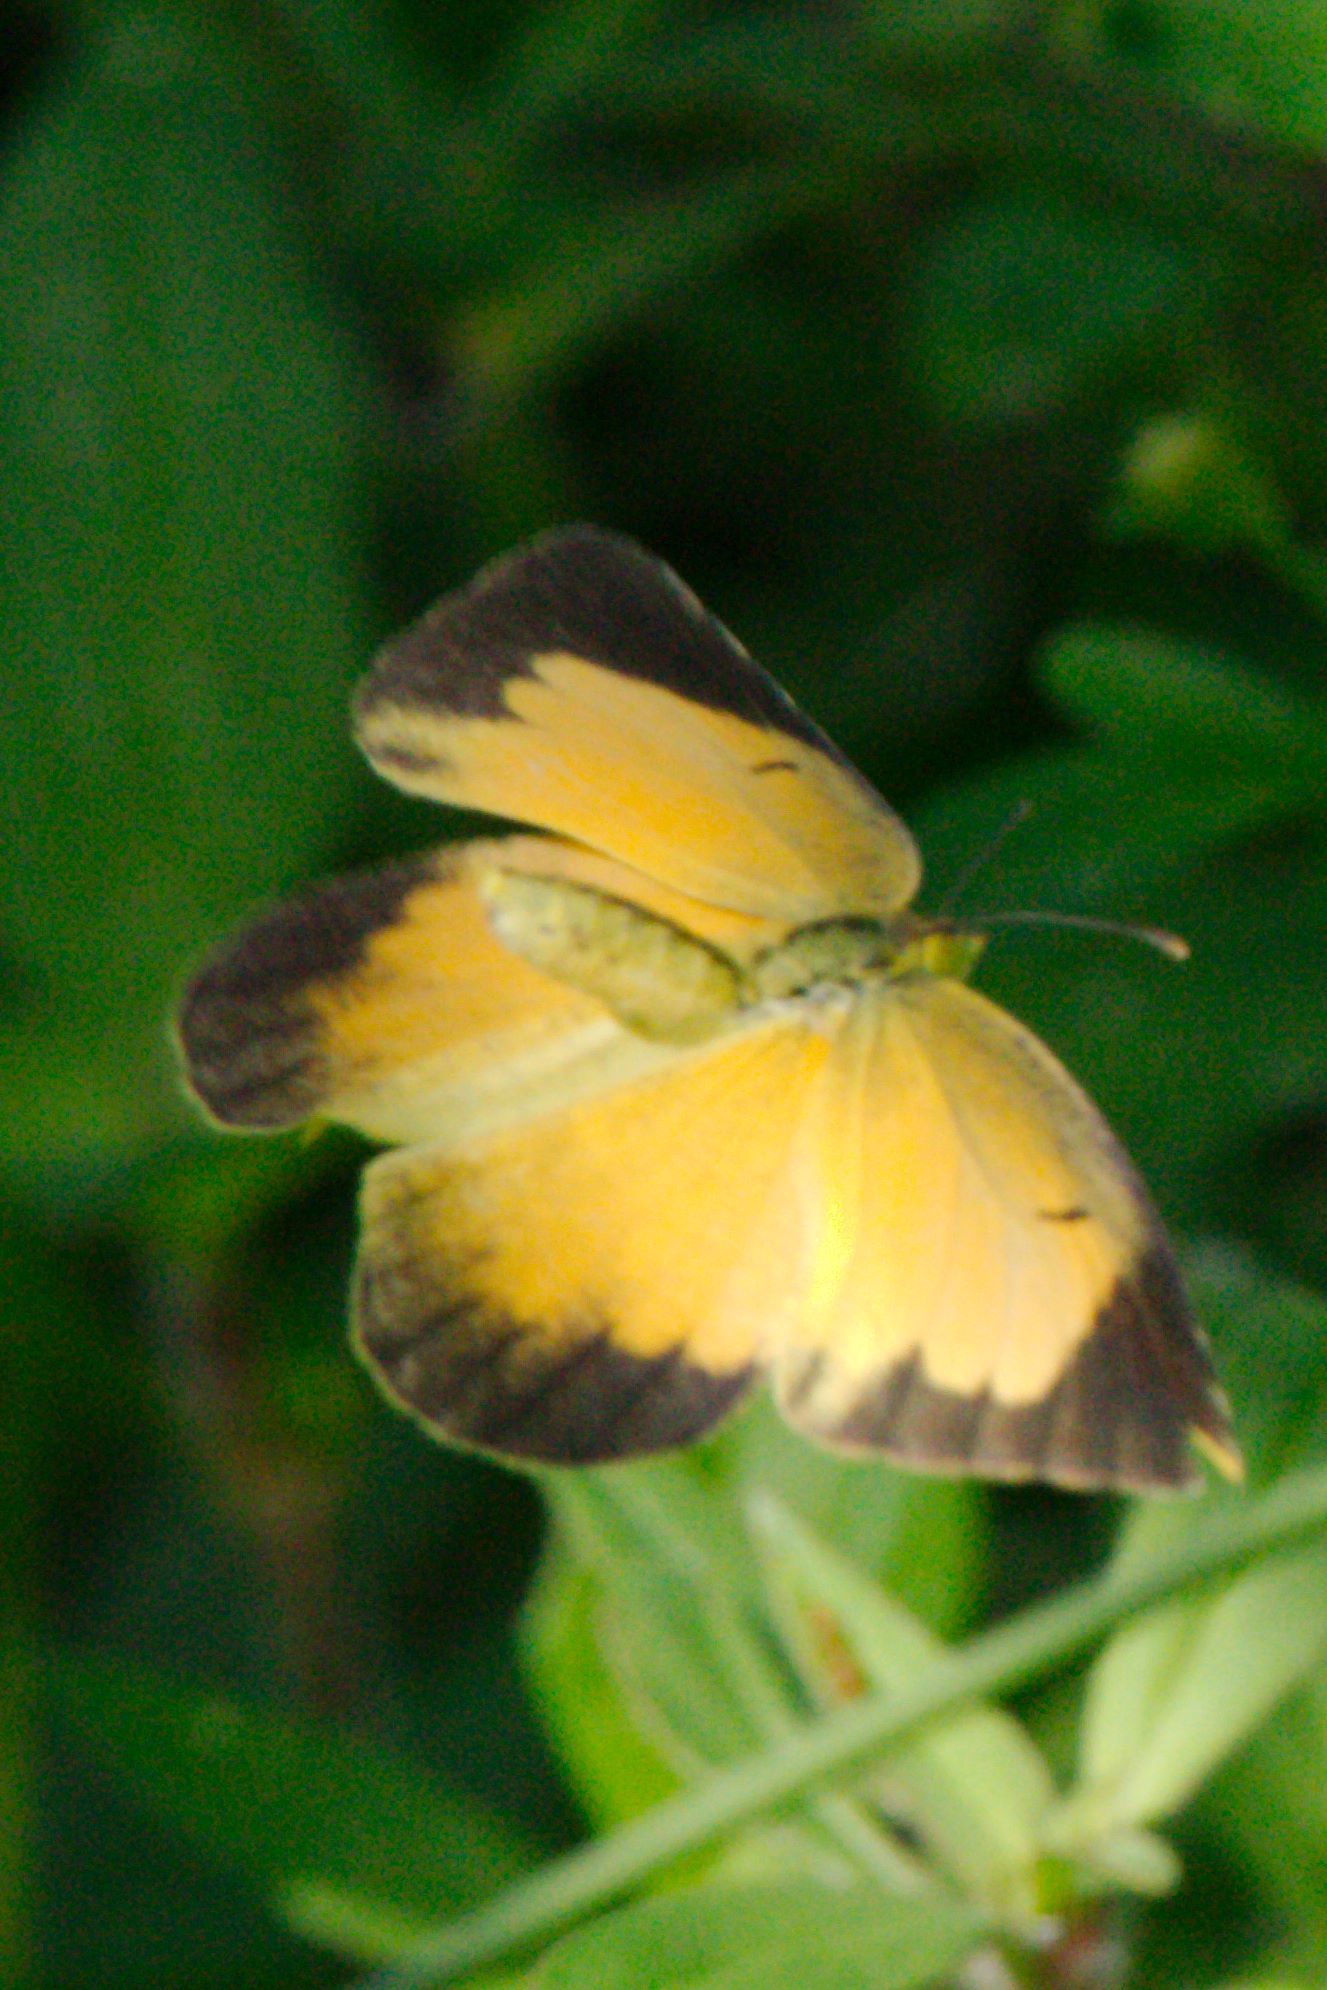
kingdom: Animalia
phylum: Arthropoda
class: Insecta
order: Lepidoptera
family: Pieridae
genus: Abaeis
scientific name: Abaeis nicippe
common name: Sleepy orange
